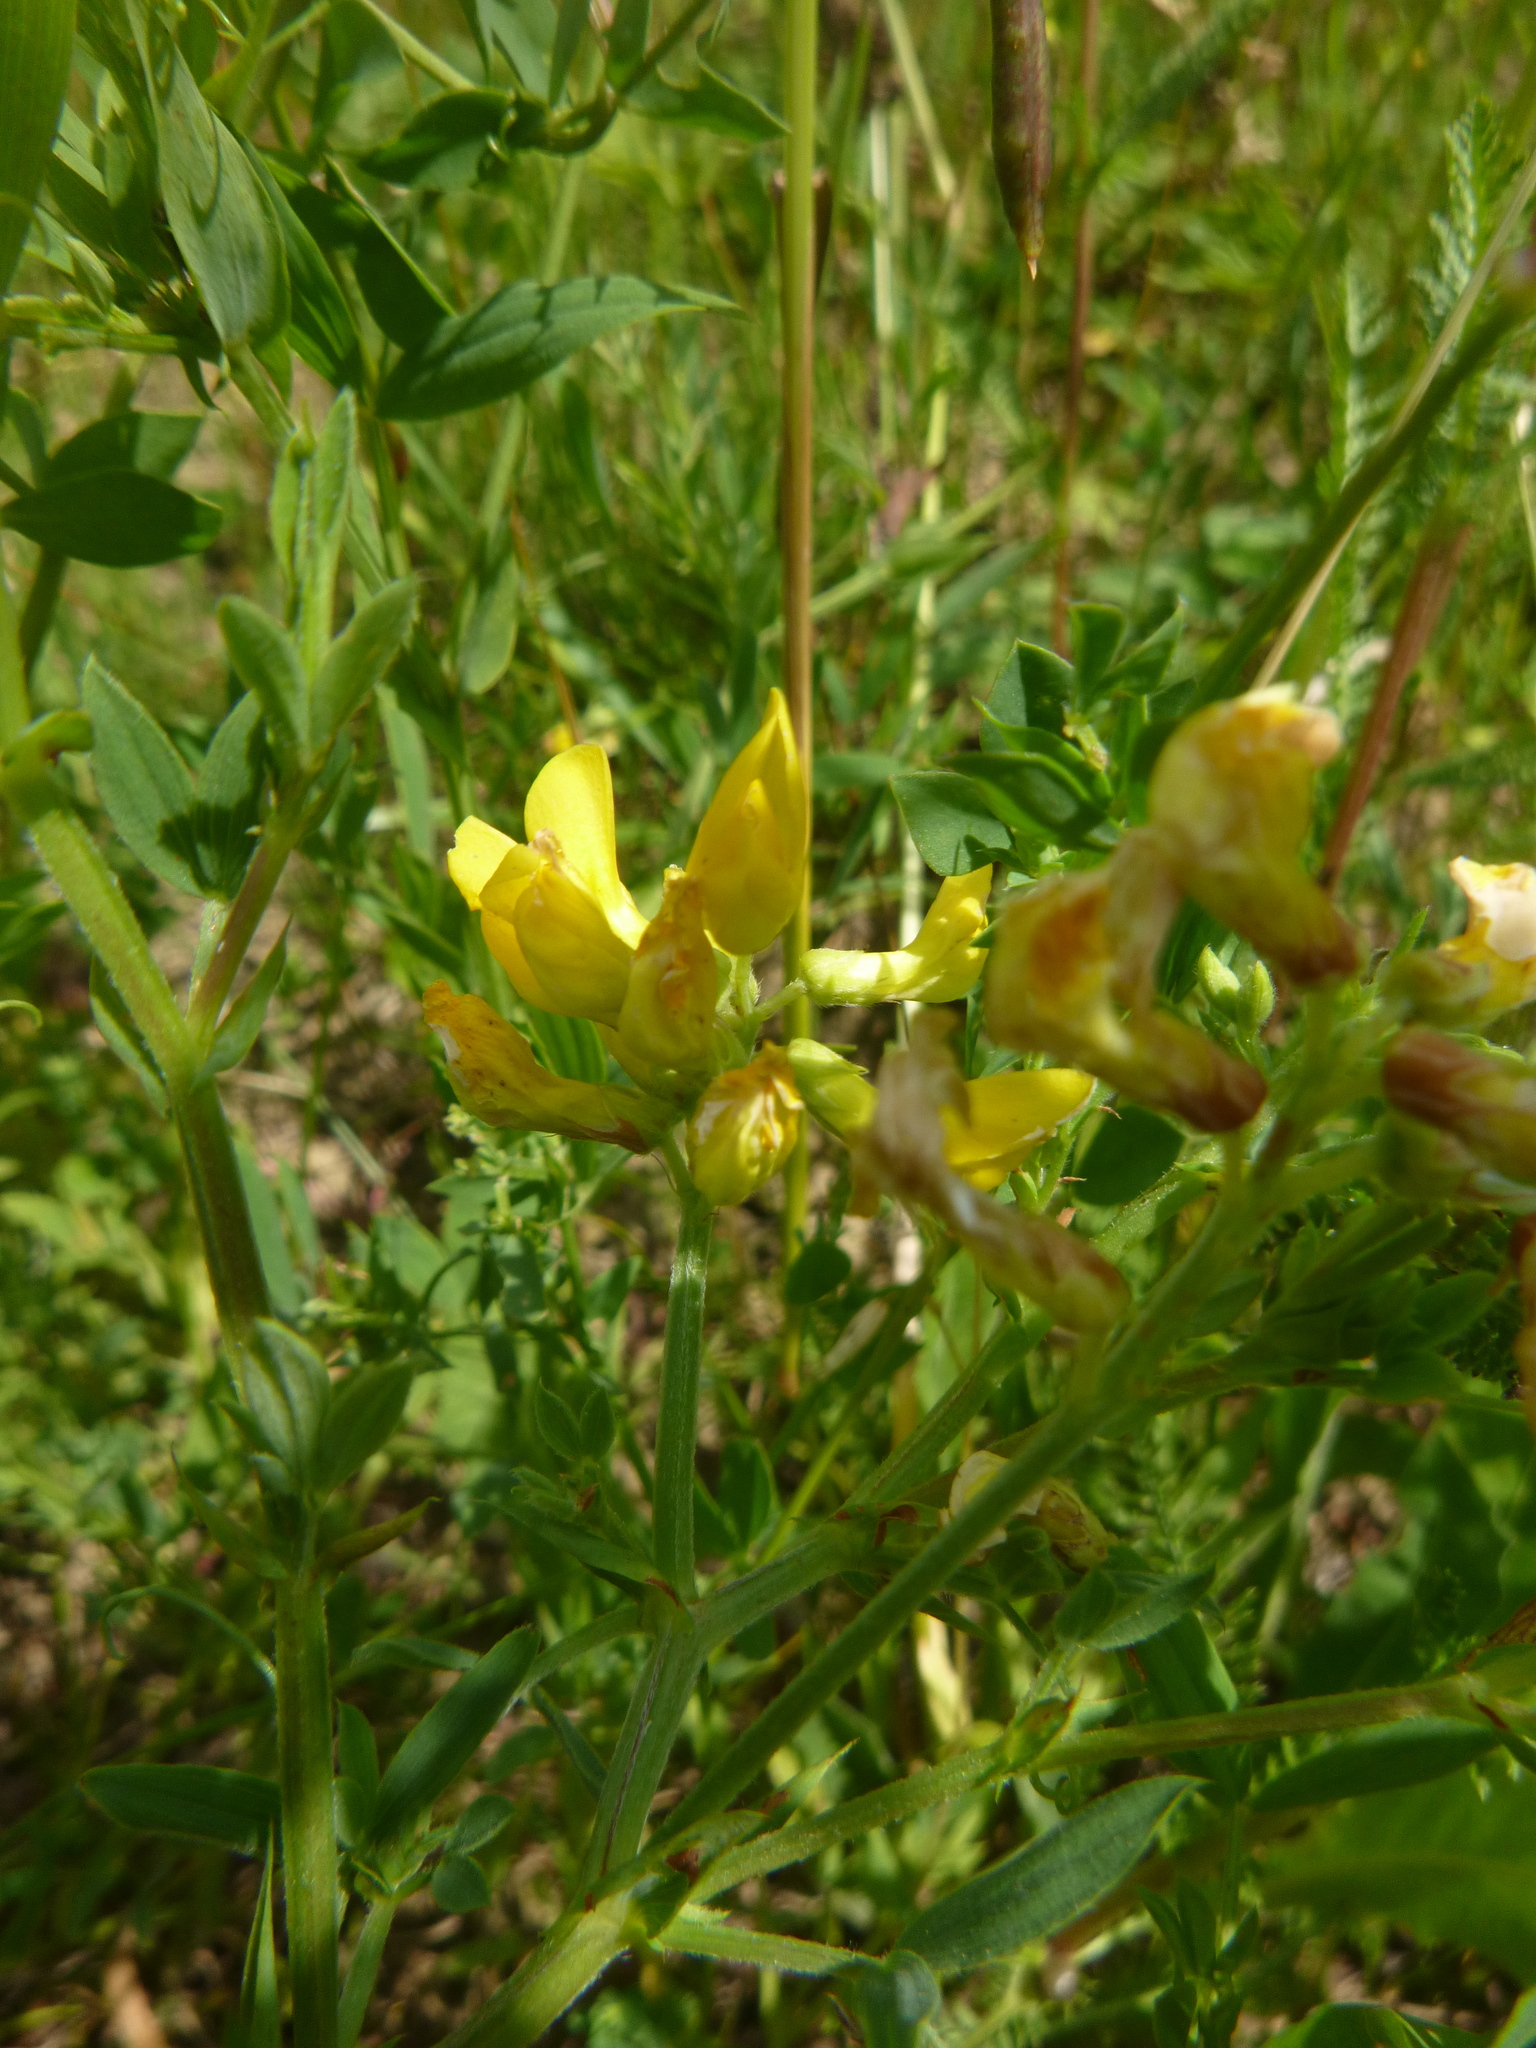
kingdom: Plantae
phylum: Tracheophyta
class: Magnoliopsida
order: Fabales
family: Fabaceae
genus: Lathyrus
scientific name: Lathyrus pratensis
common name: Meadow vetchling
